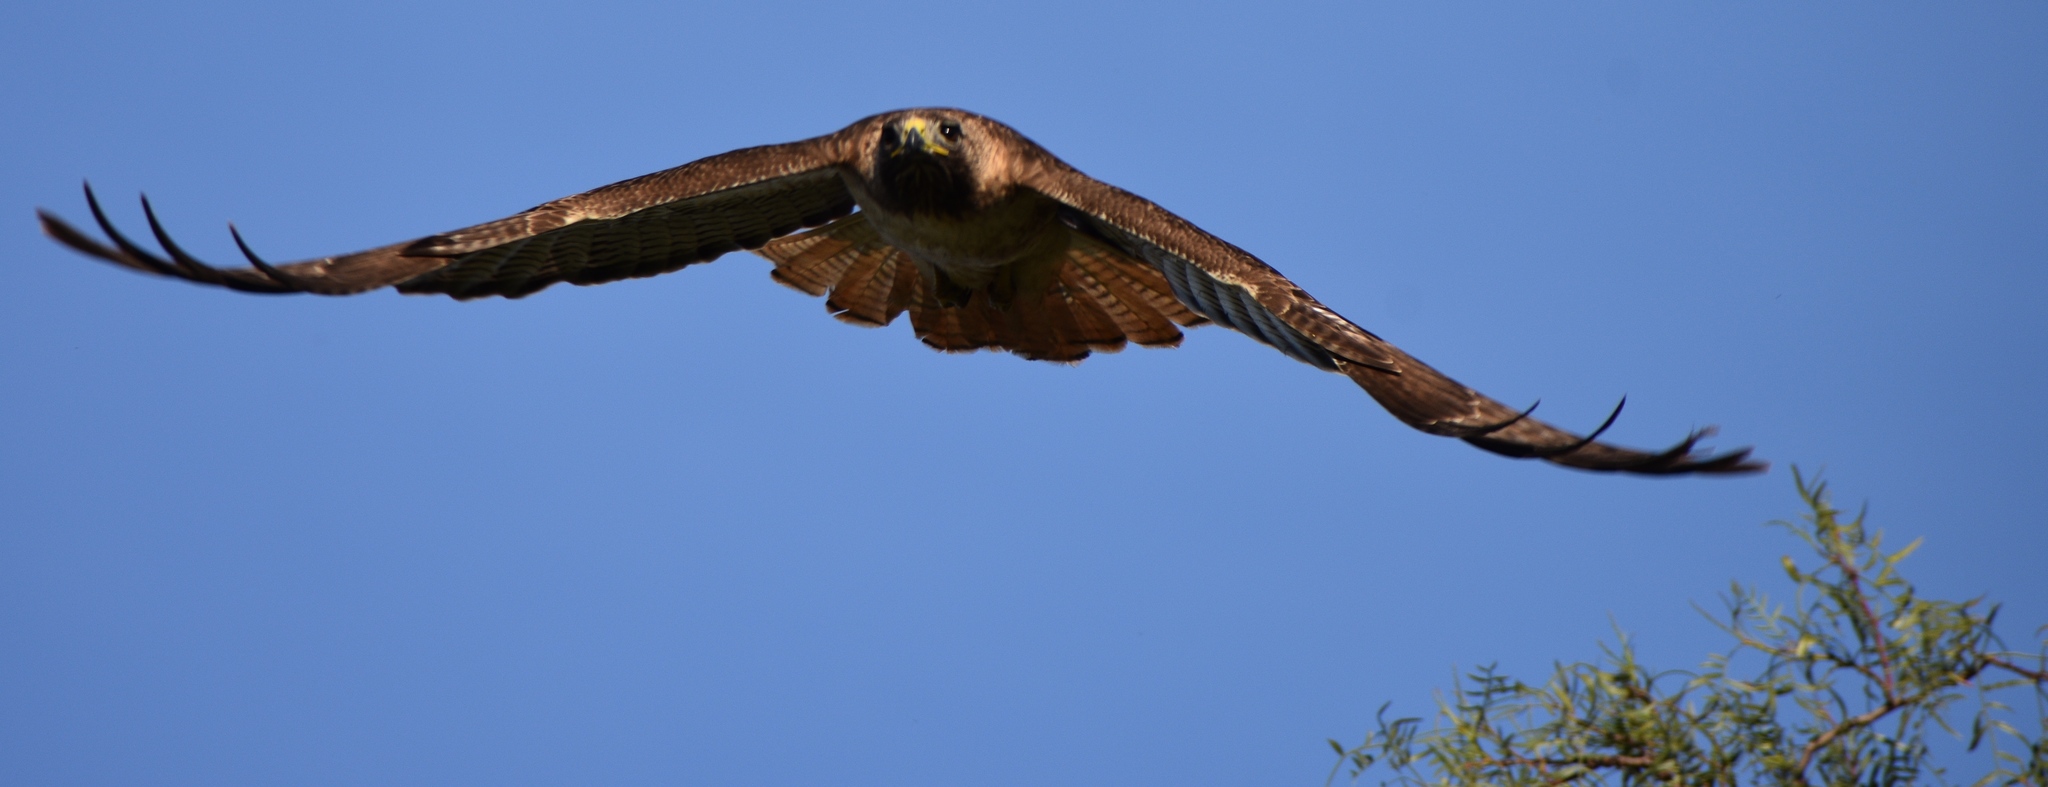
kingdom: Animalia
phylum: Chordata
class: Aves
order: Accipitriformes
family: Accipitridae
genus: Buteo
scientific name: Buteo jamaicensis
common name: Red-tailed hawk
